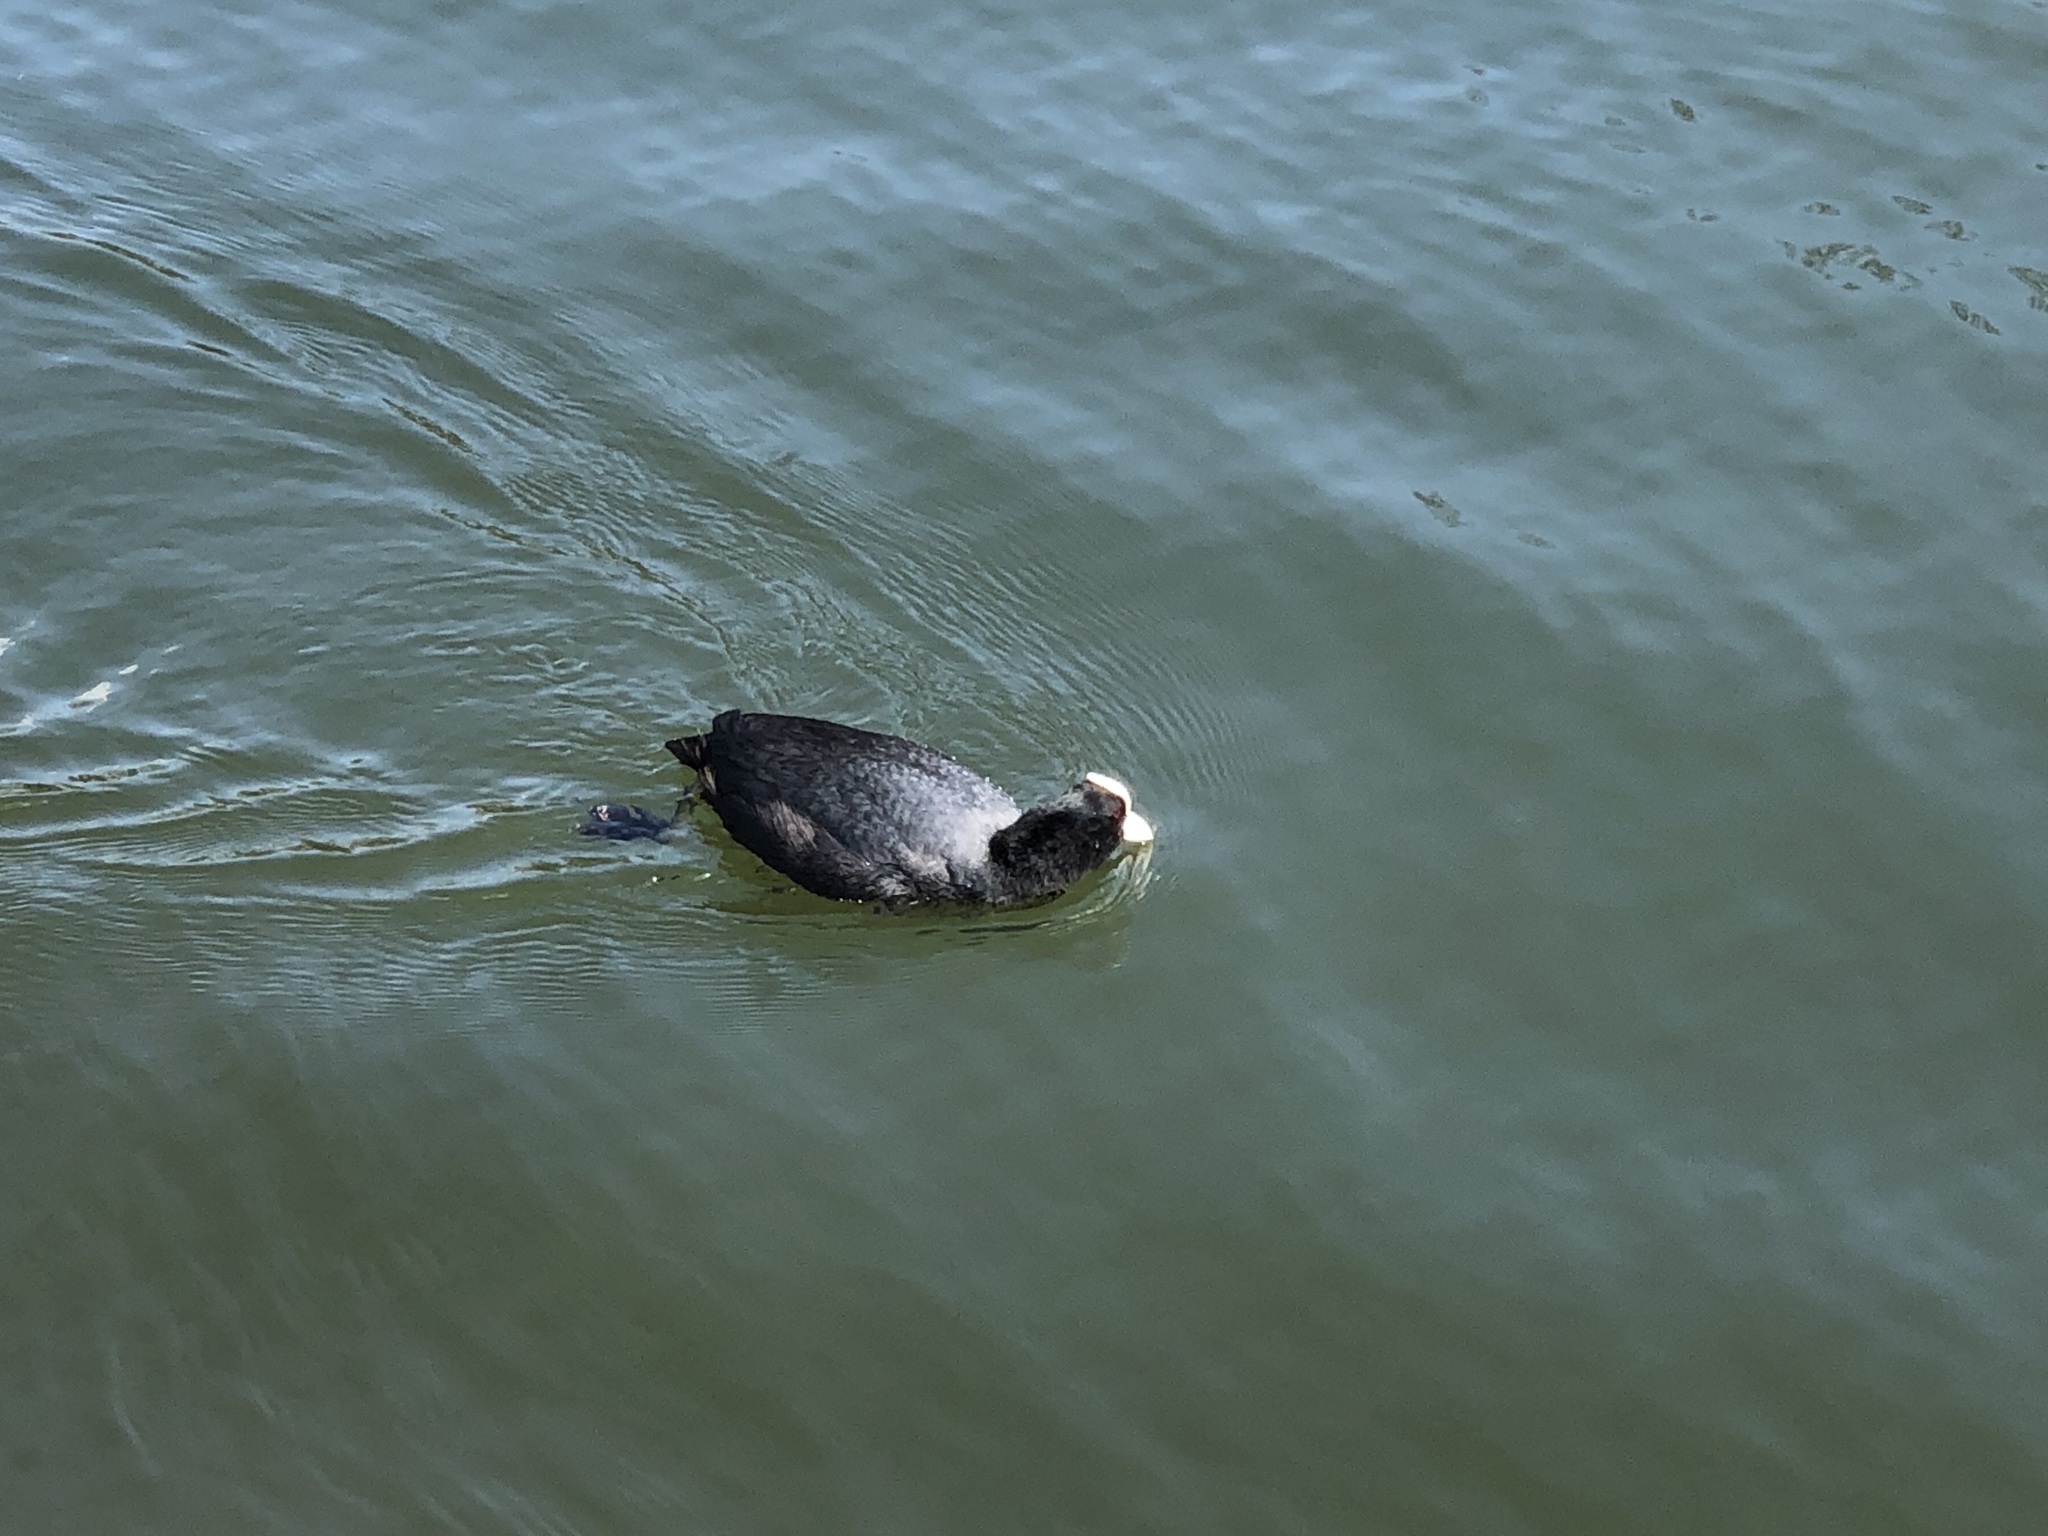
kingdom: Animalia
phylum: Chordata
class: Aves
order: Gruiformes
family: Rallidae
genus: Fulica
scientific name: Fulica atra
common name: Eurasian coot
